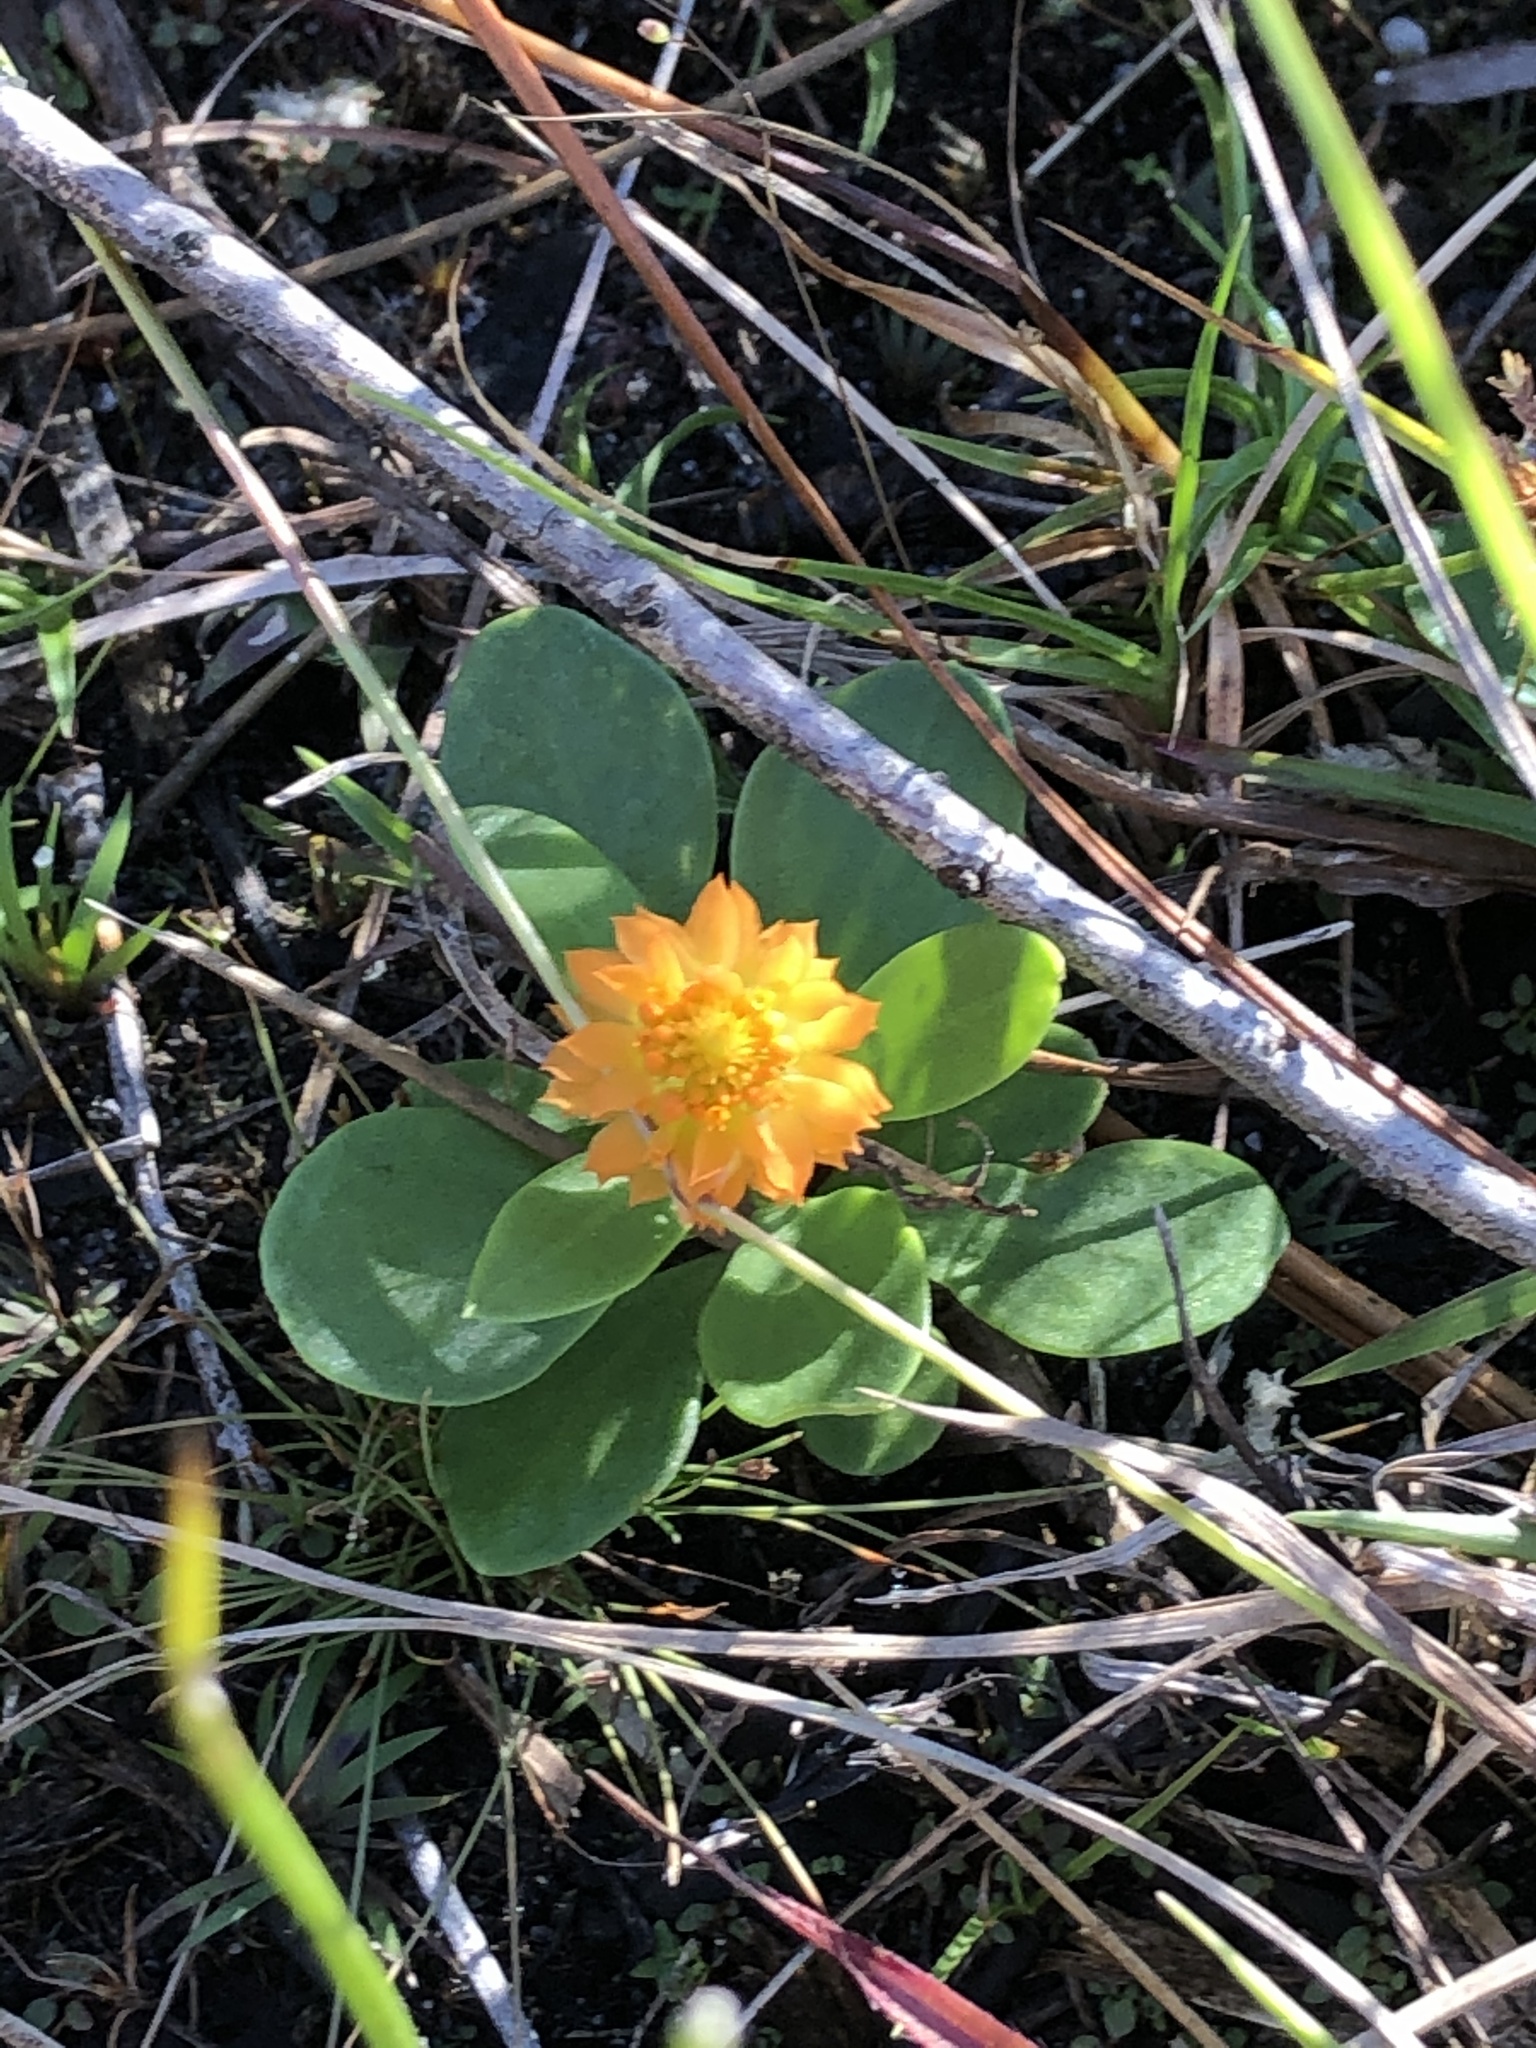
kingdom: Plantae
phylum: Tracheophyta
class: Magnoliopsida
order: Fabales
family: Polygalaceae
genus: Polygala
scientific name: Polygala lutea
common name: Orange milkwort
